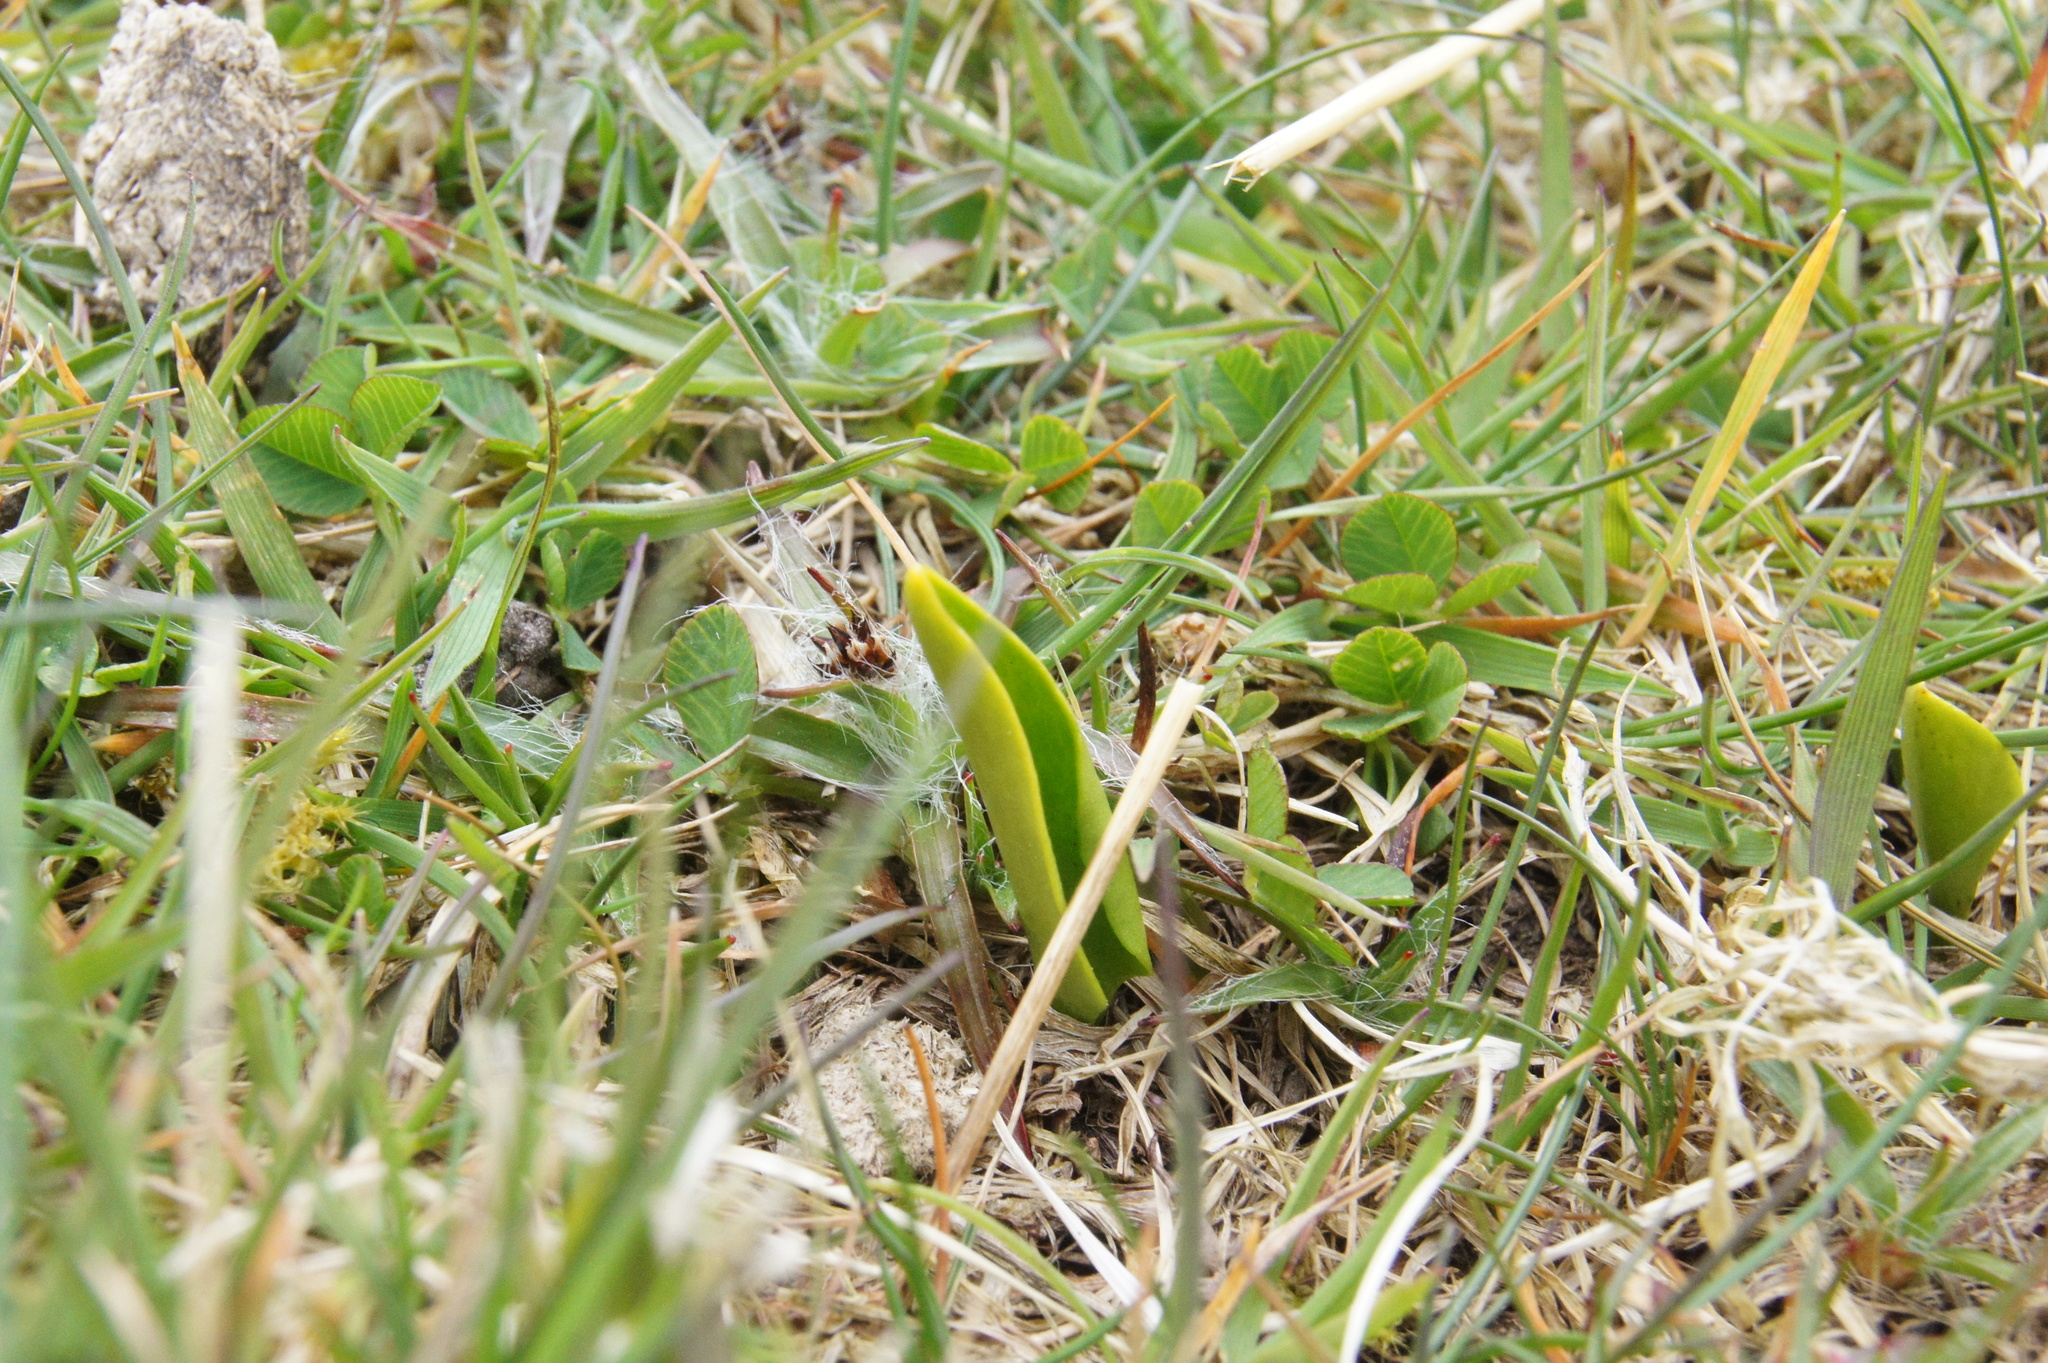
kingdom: Plantae
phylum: Tracheophyta
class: Polypodiopsida
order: Ophioglossales
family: Ophioglossaceae
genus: Ophioglossum
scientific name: Ophioglossum vulgatum
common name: Adder's-tongue
